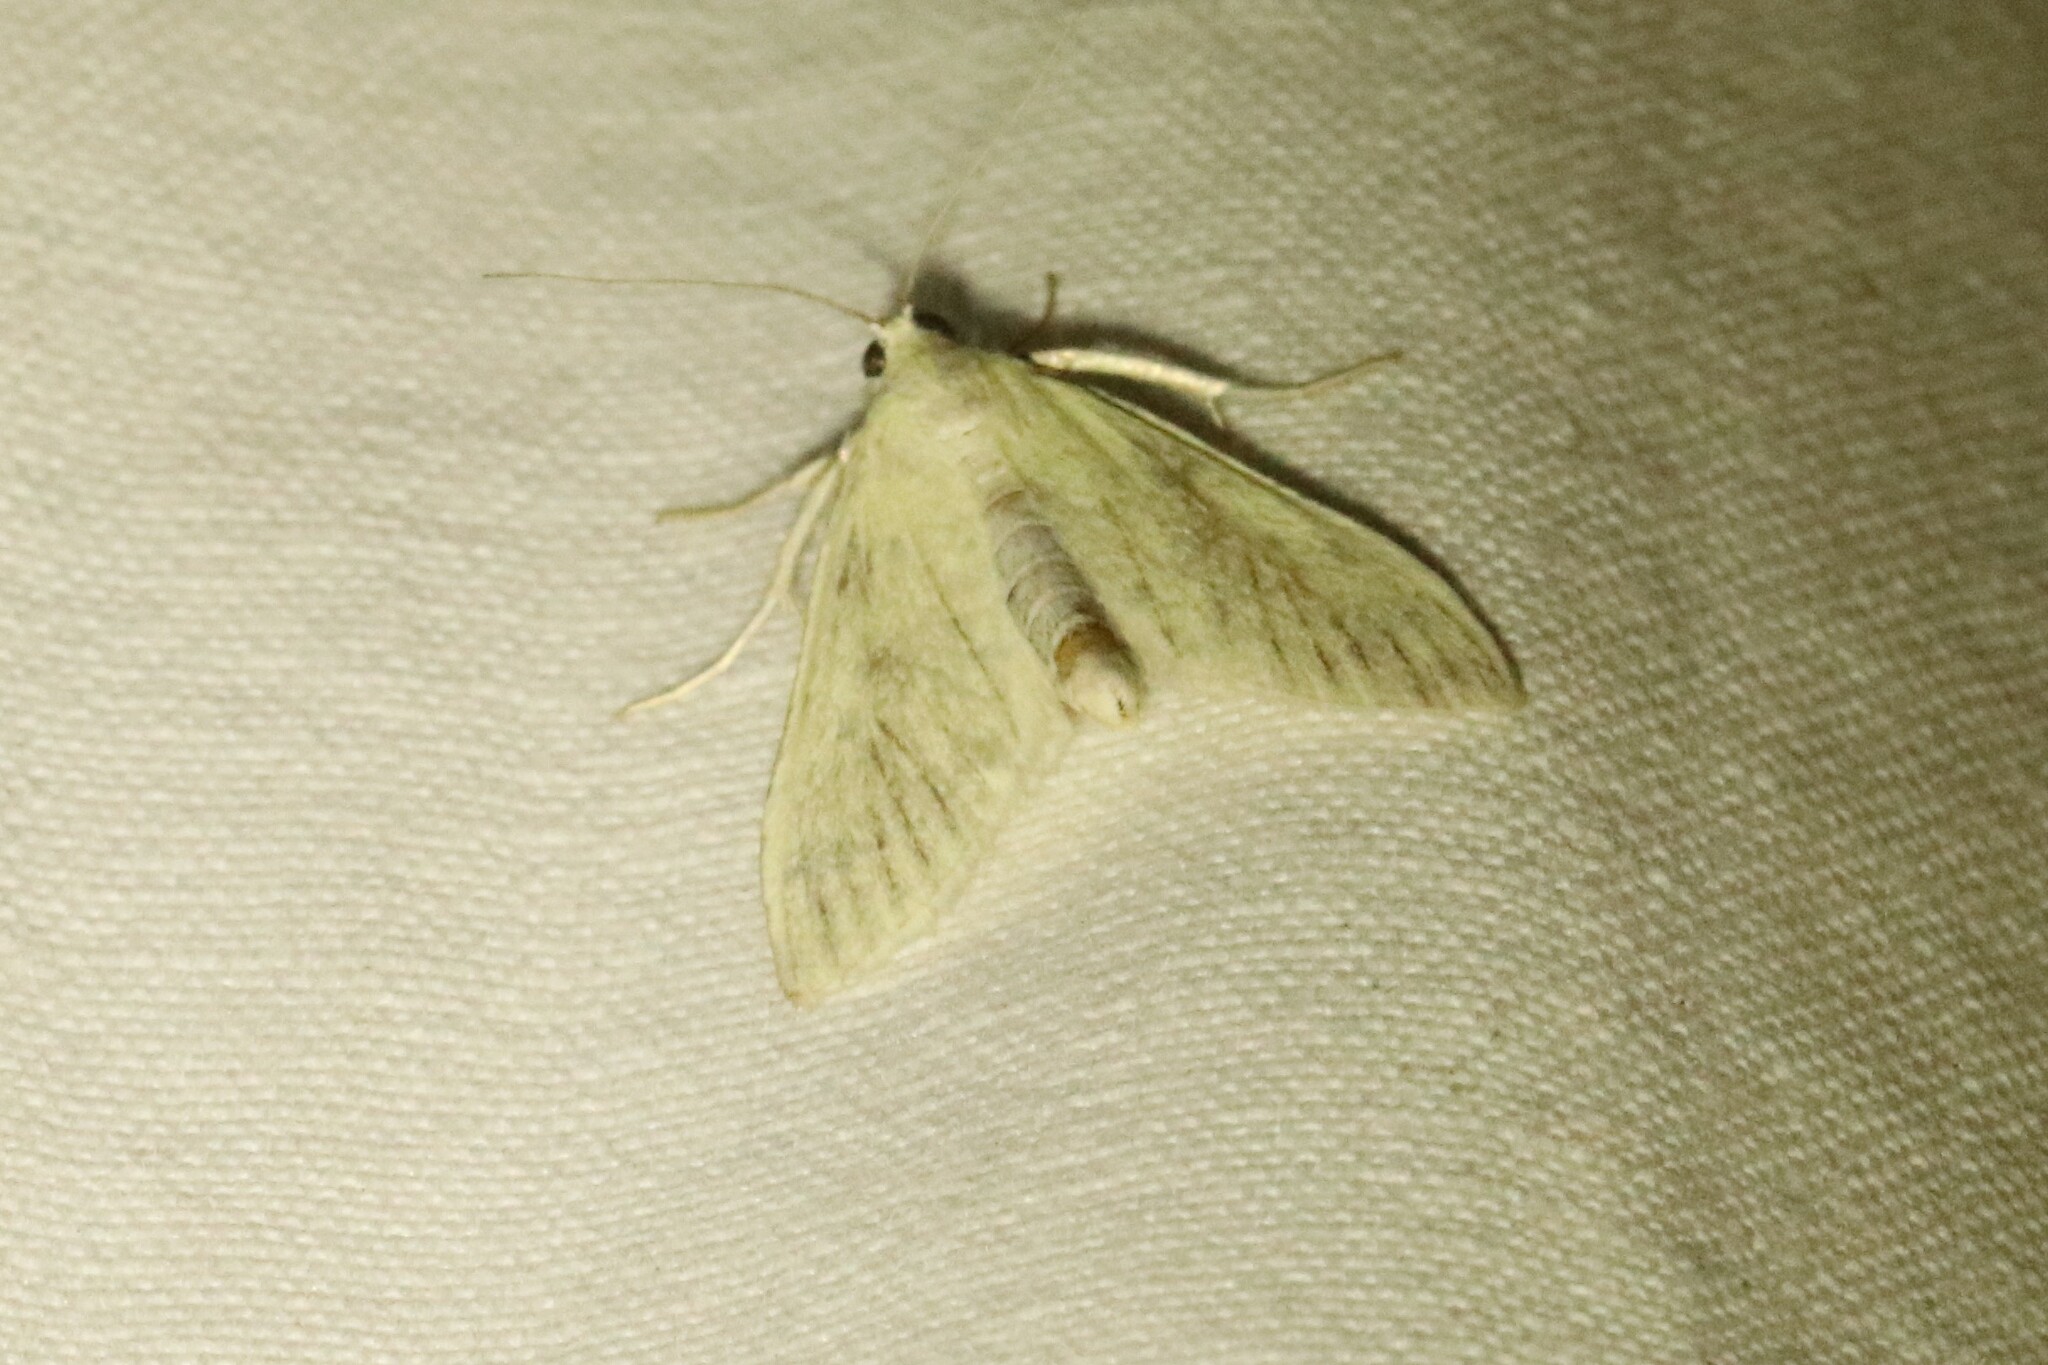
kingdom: Animalia
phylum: Arthropoda
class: Insecta
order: Lepidoptera
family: Crambidae
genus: Sitochroa
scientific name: Sitochroa palealis
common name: Greenish-yellow sitochroa moth
